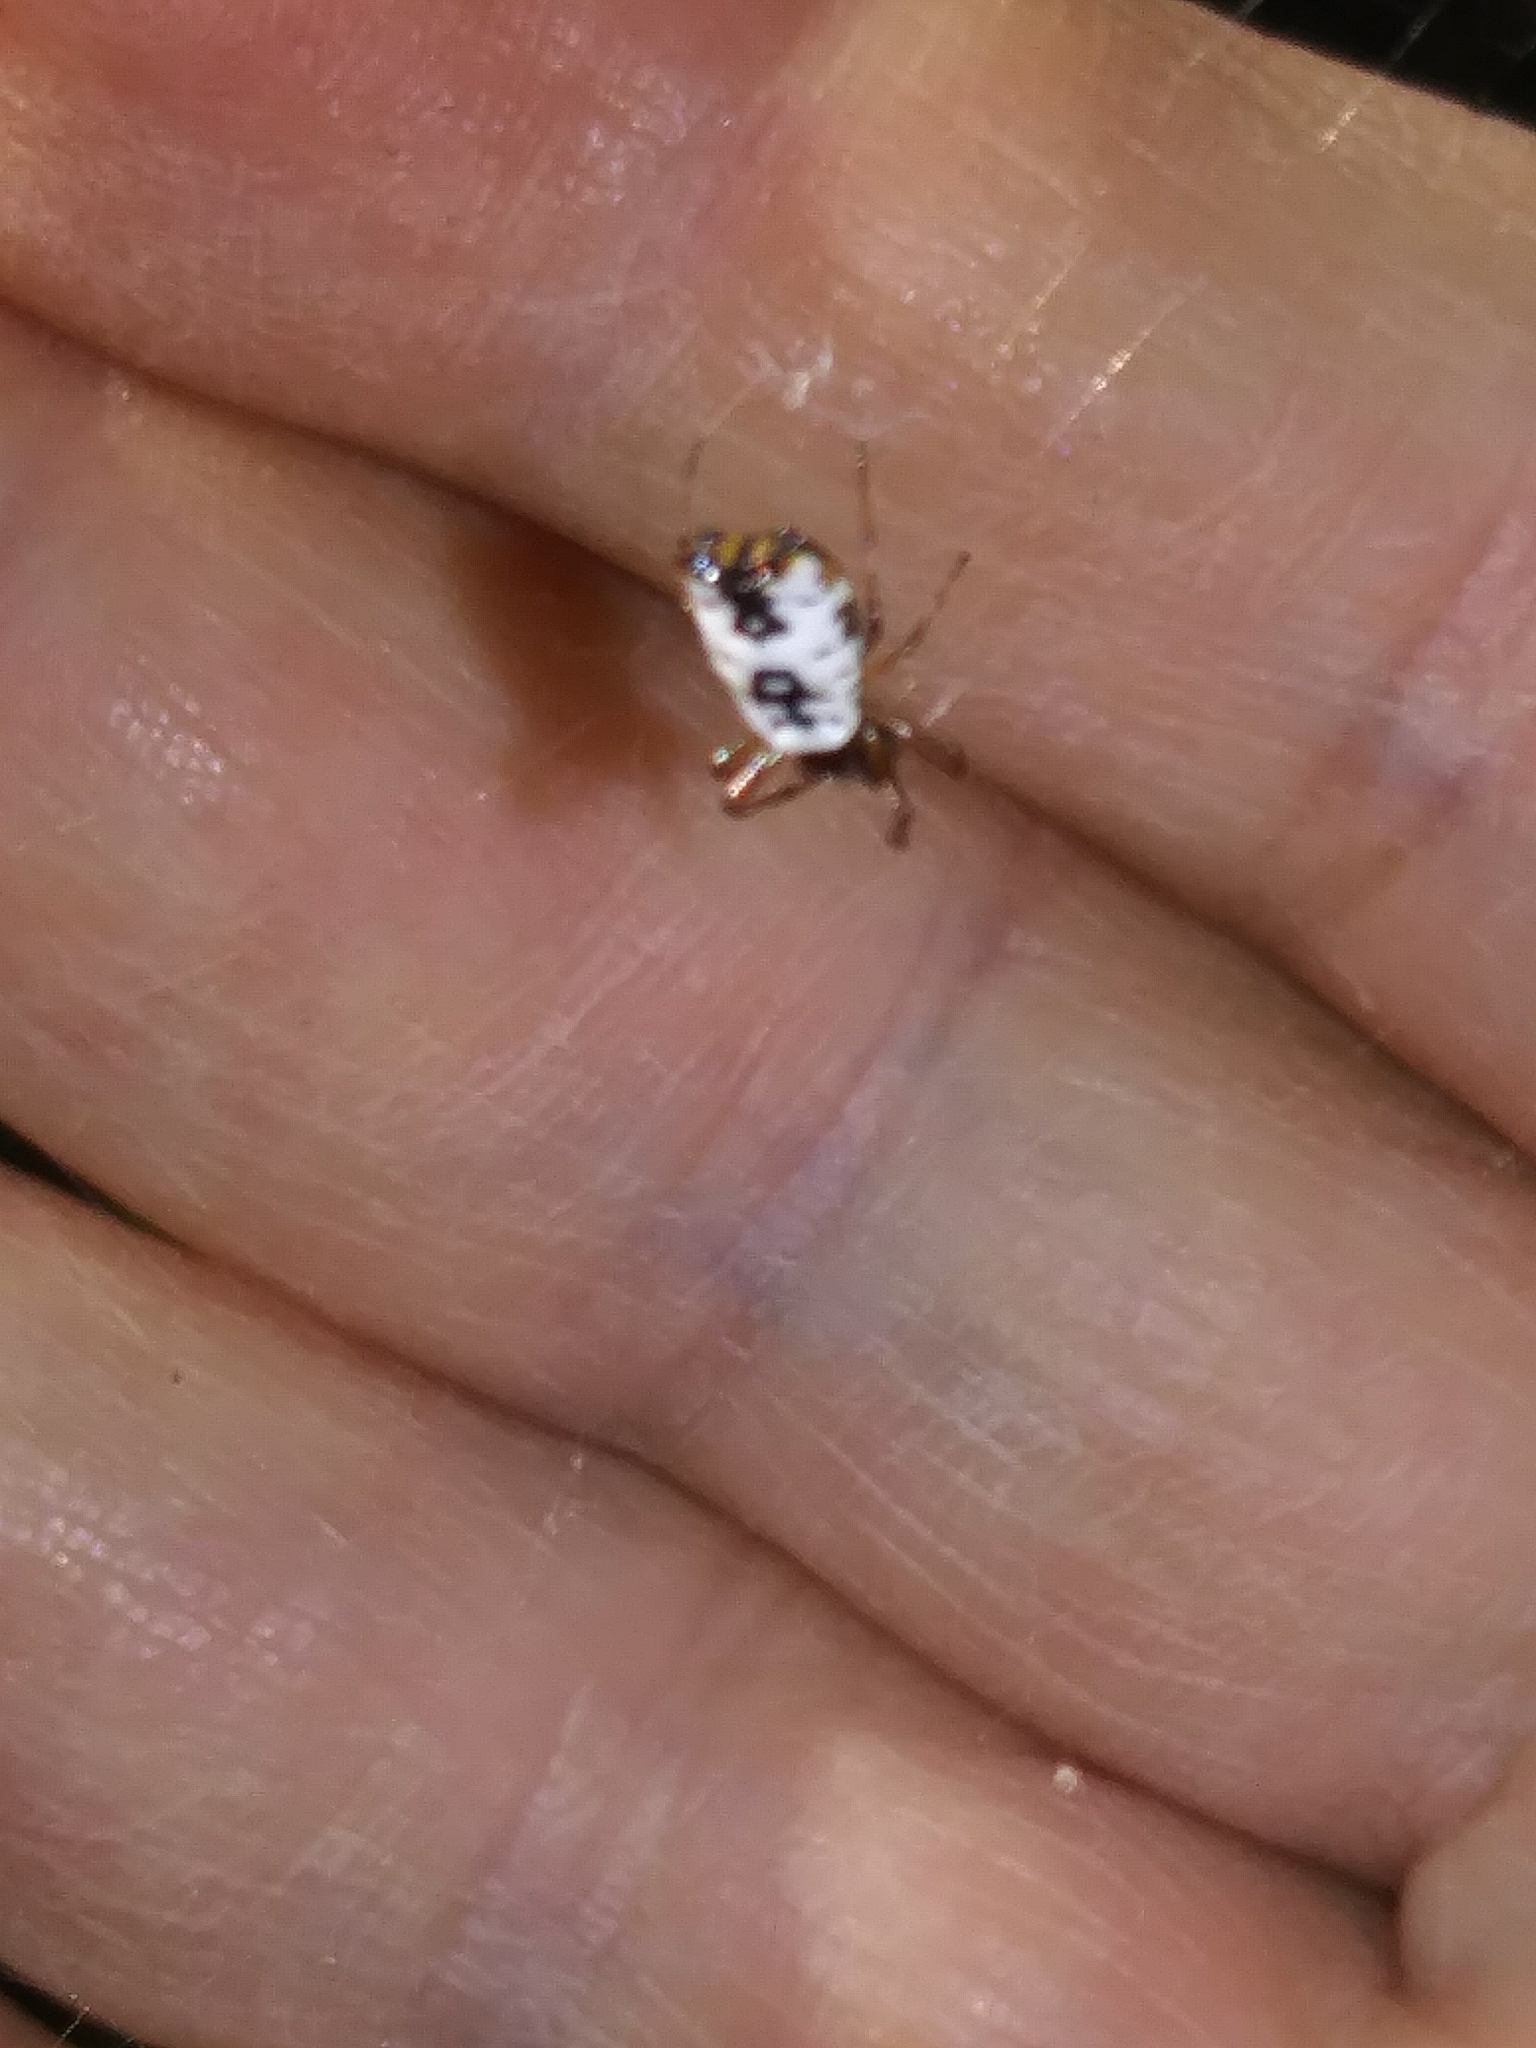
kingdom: Animalia
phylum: Arthropoda
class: Arachnida
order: Araneae
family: Araneidae
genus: Micrathena
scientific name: Micrathena mitrata
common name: Orb weavers
